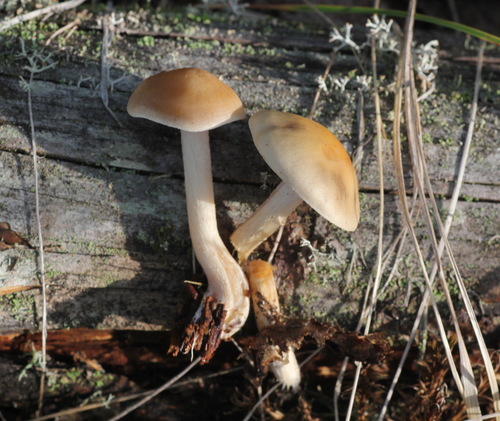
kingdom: Fungi
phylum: Basidiomycota
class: Agaricomycetes
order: Agaricales
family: Hymenogastraceae
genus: Hebeloma
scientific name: Hebeloma incarnatulum
